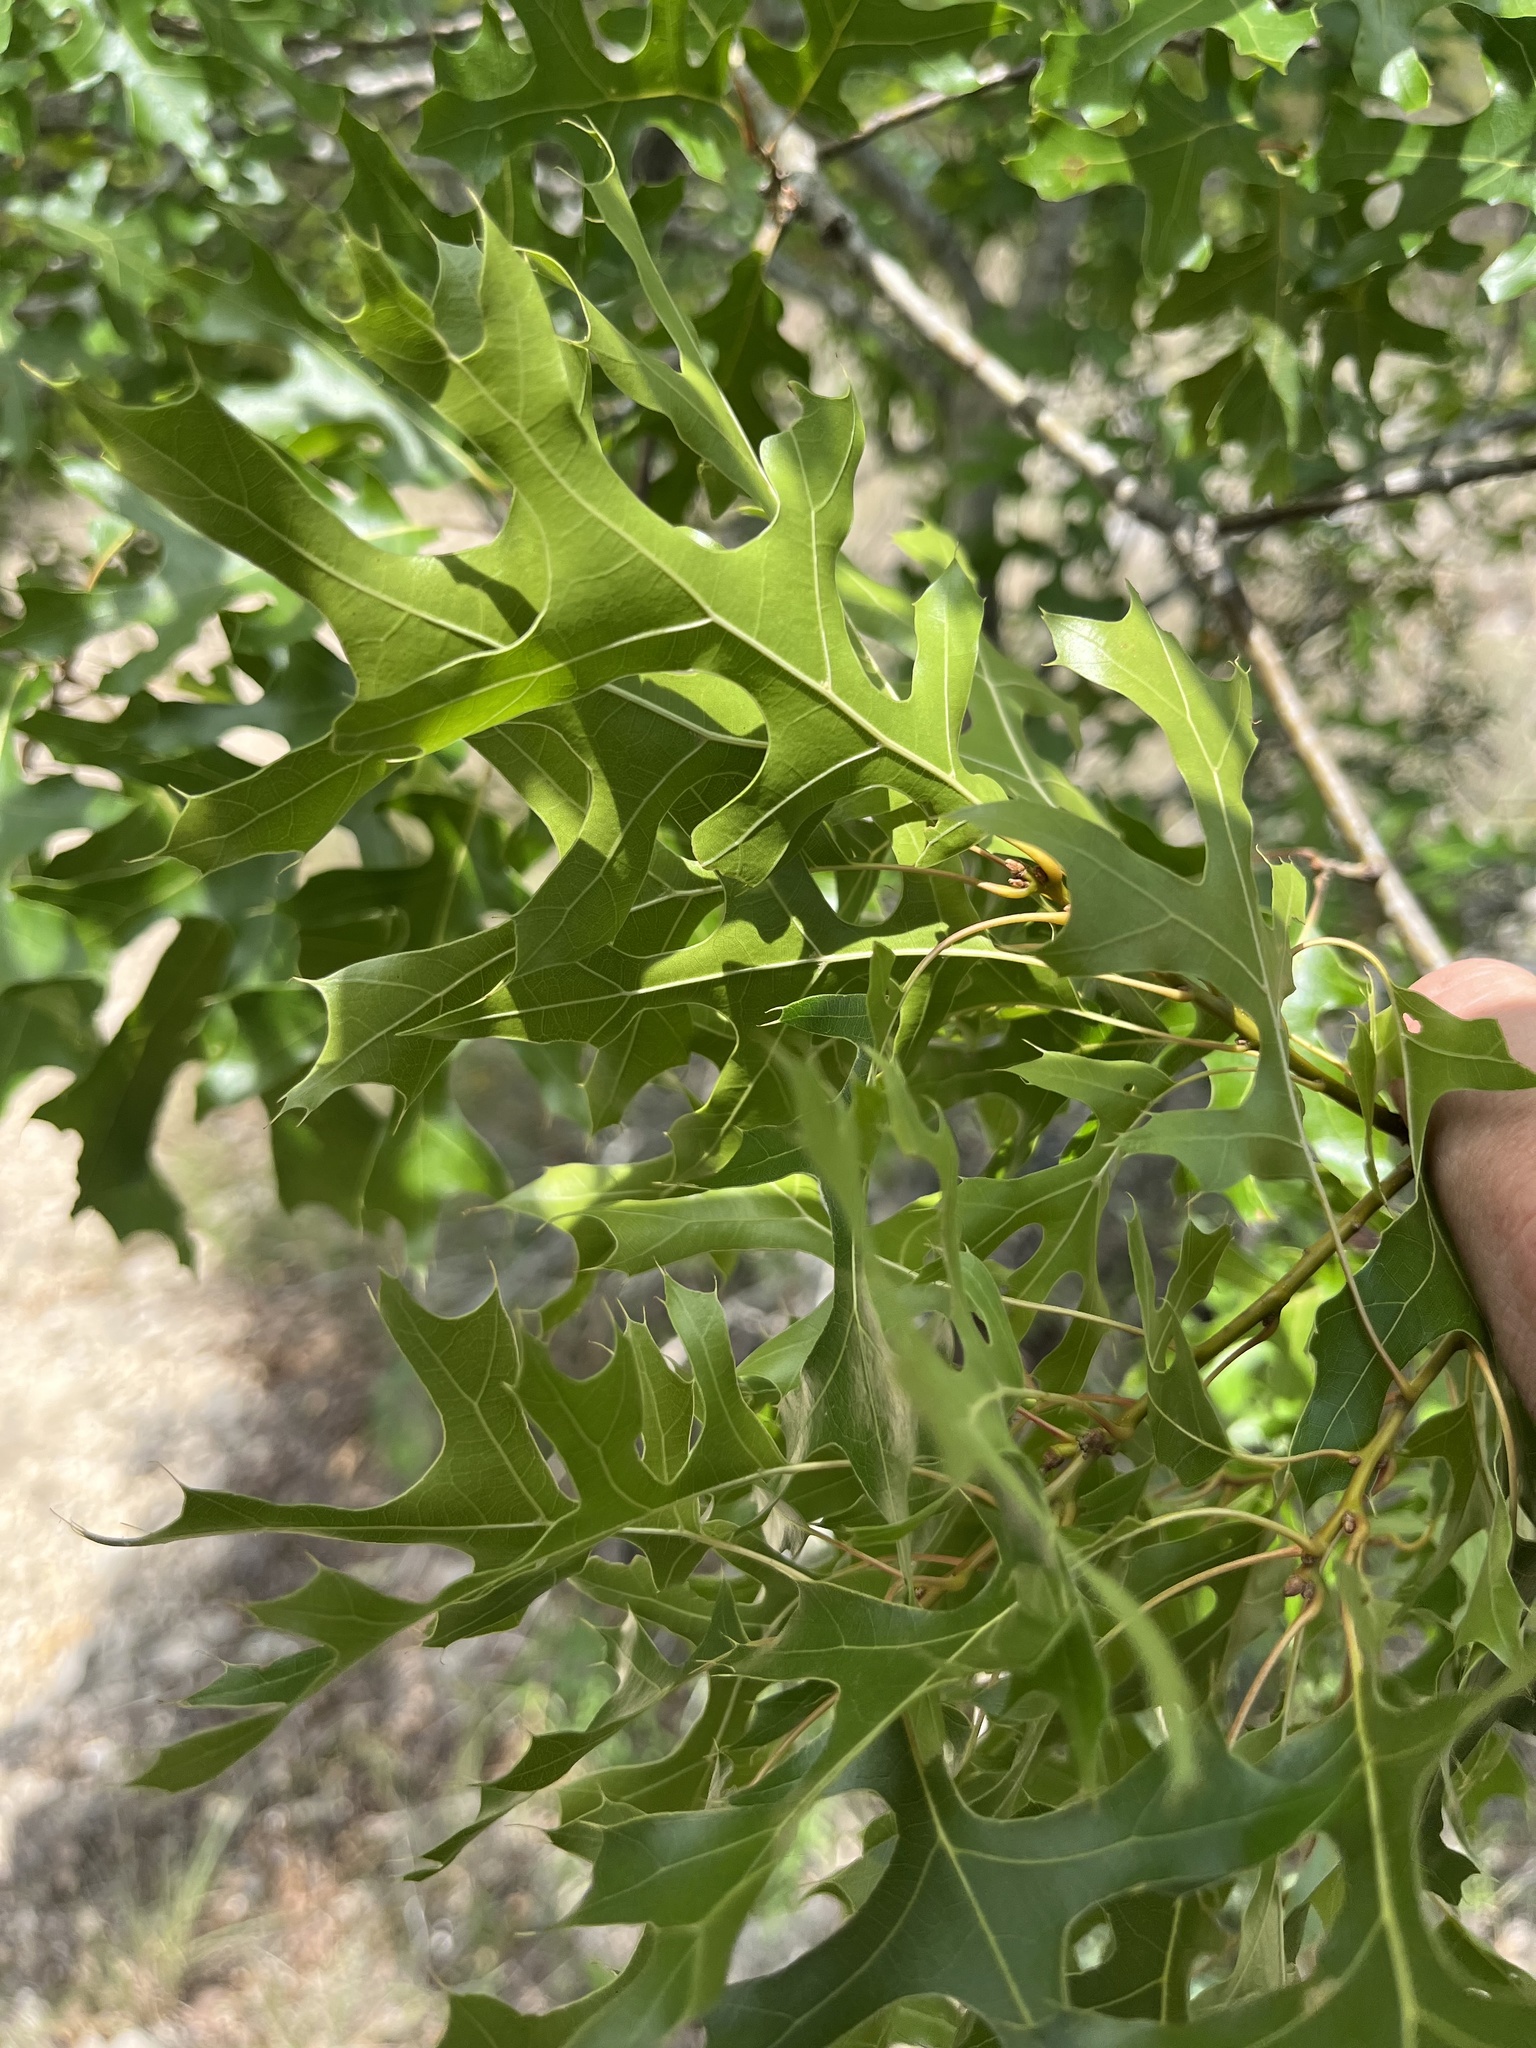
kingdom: Plantae
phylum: Tracheophyta
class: Magnoliopsida
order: Fagales
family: Fagaceae
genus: Quercus
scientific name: Quercus buckleyi
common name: Buckley oak
